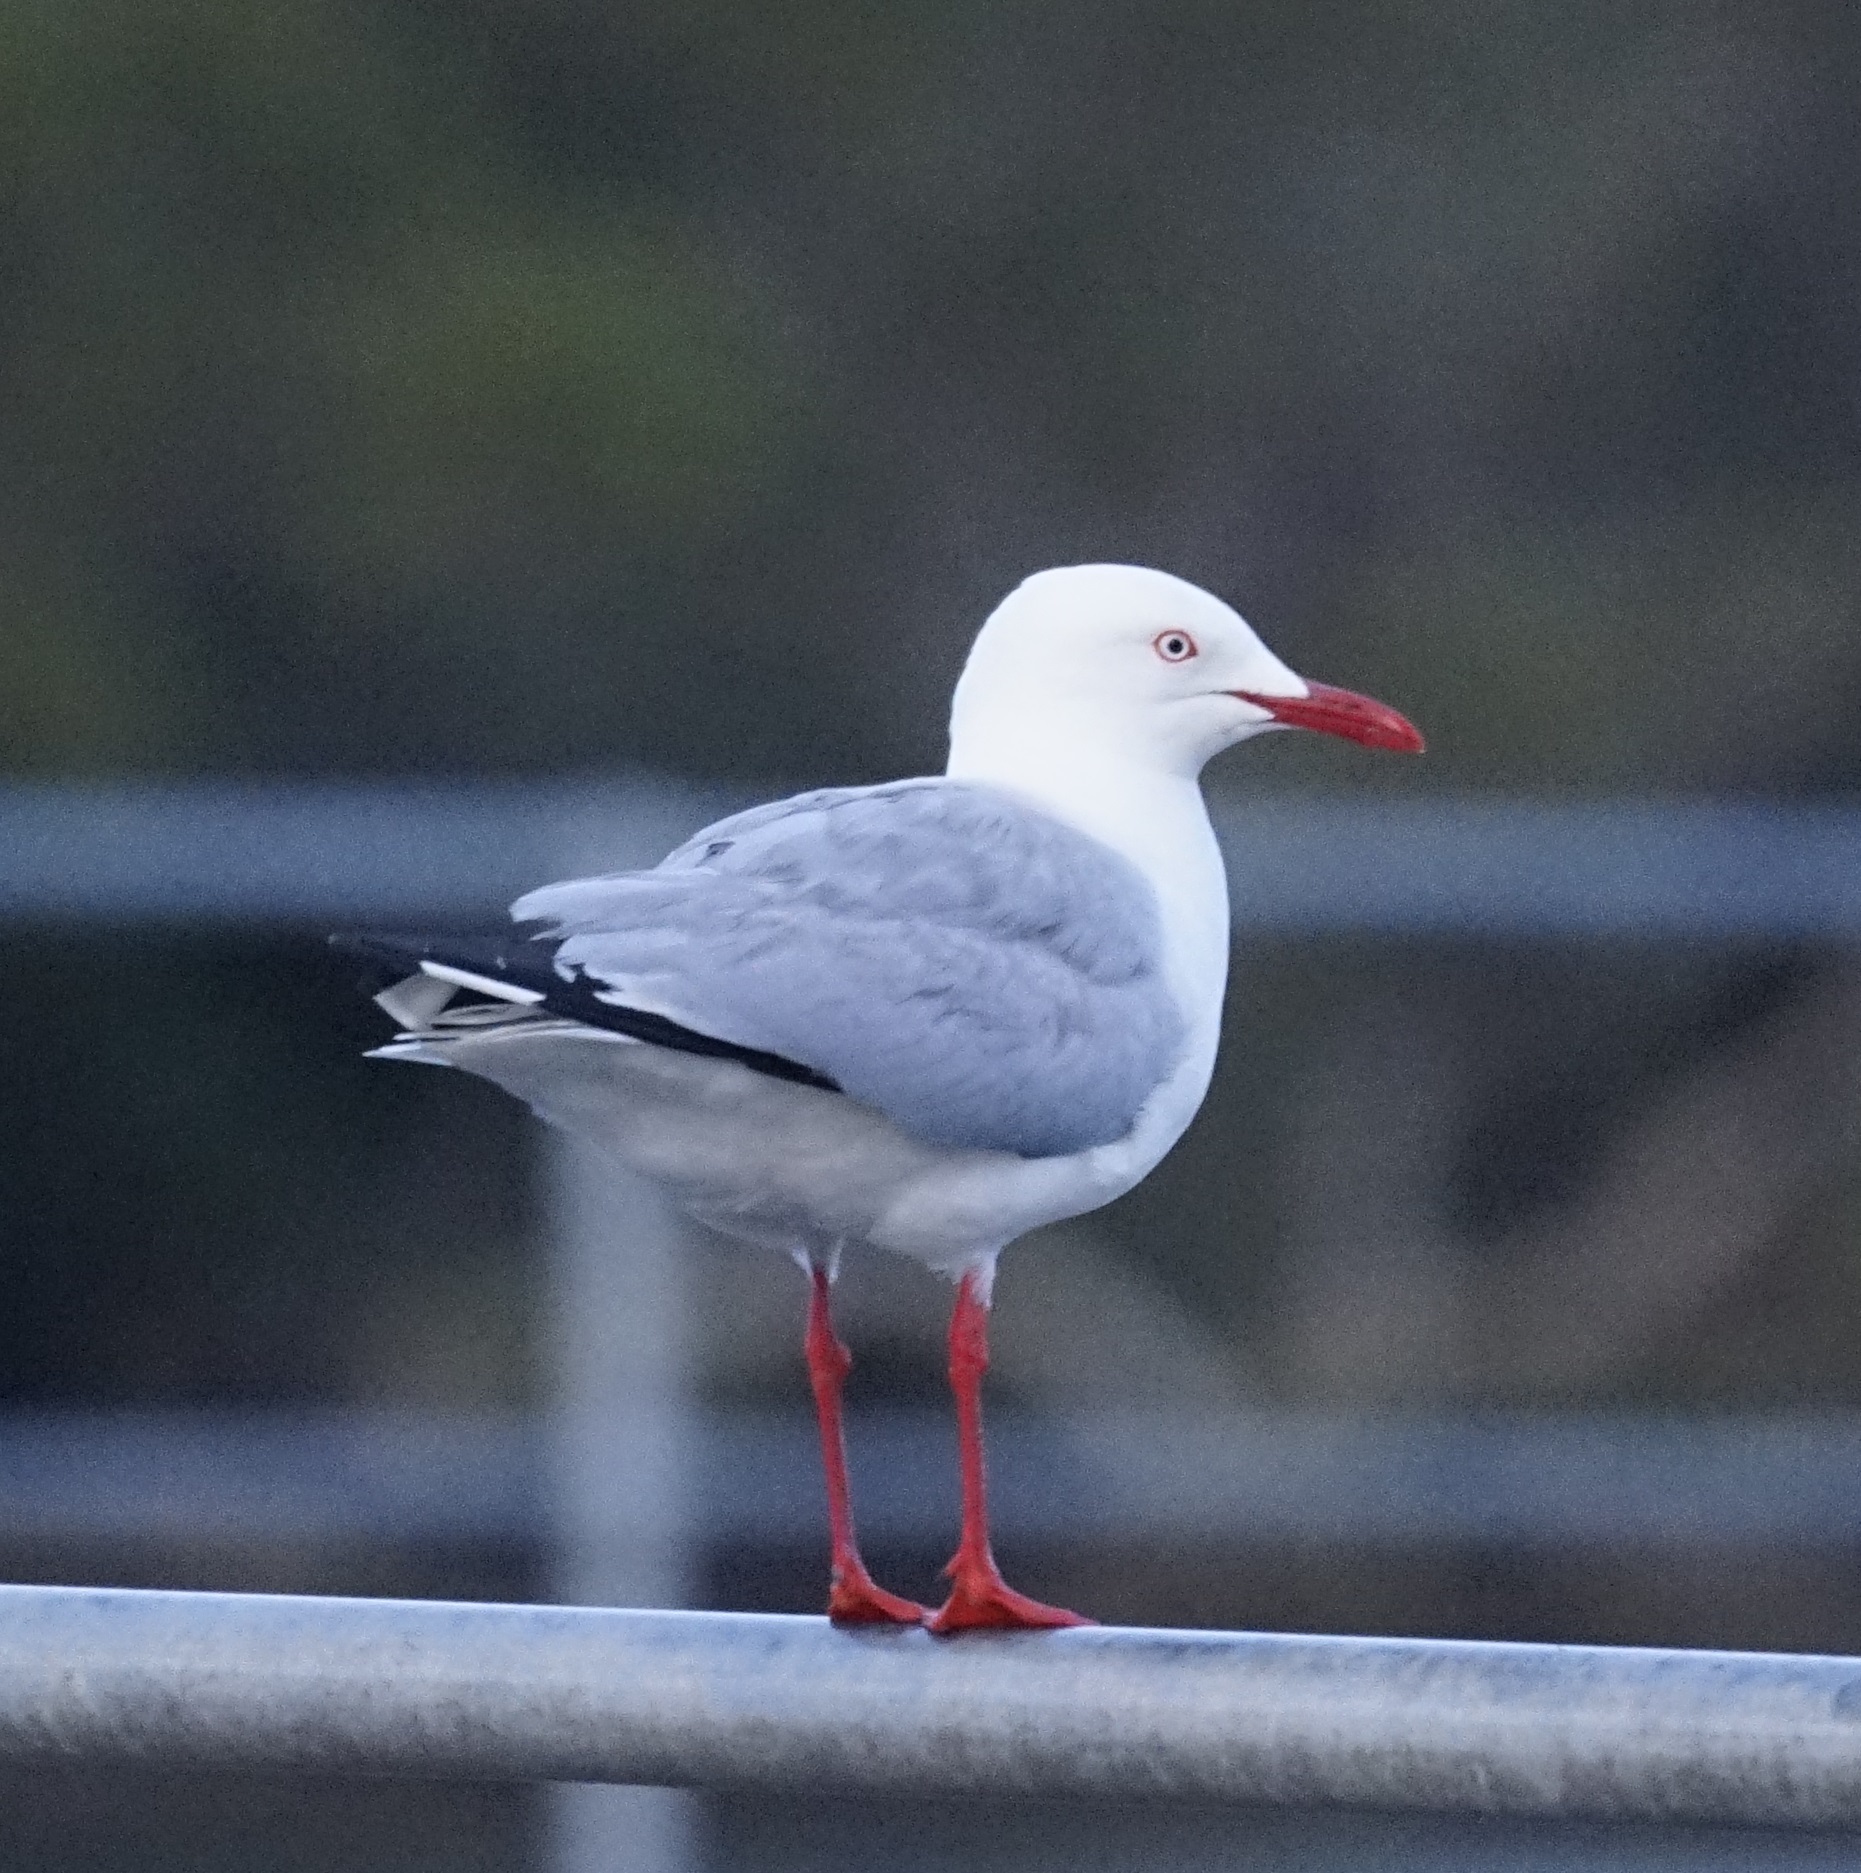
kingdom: Animalia
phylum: Chordata
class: Aves
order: Charadriiformes
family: Laridae
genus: Chroicocephalus
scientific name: Chroicocephalus novaehollandiae
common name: Silver gull
